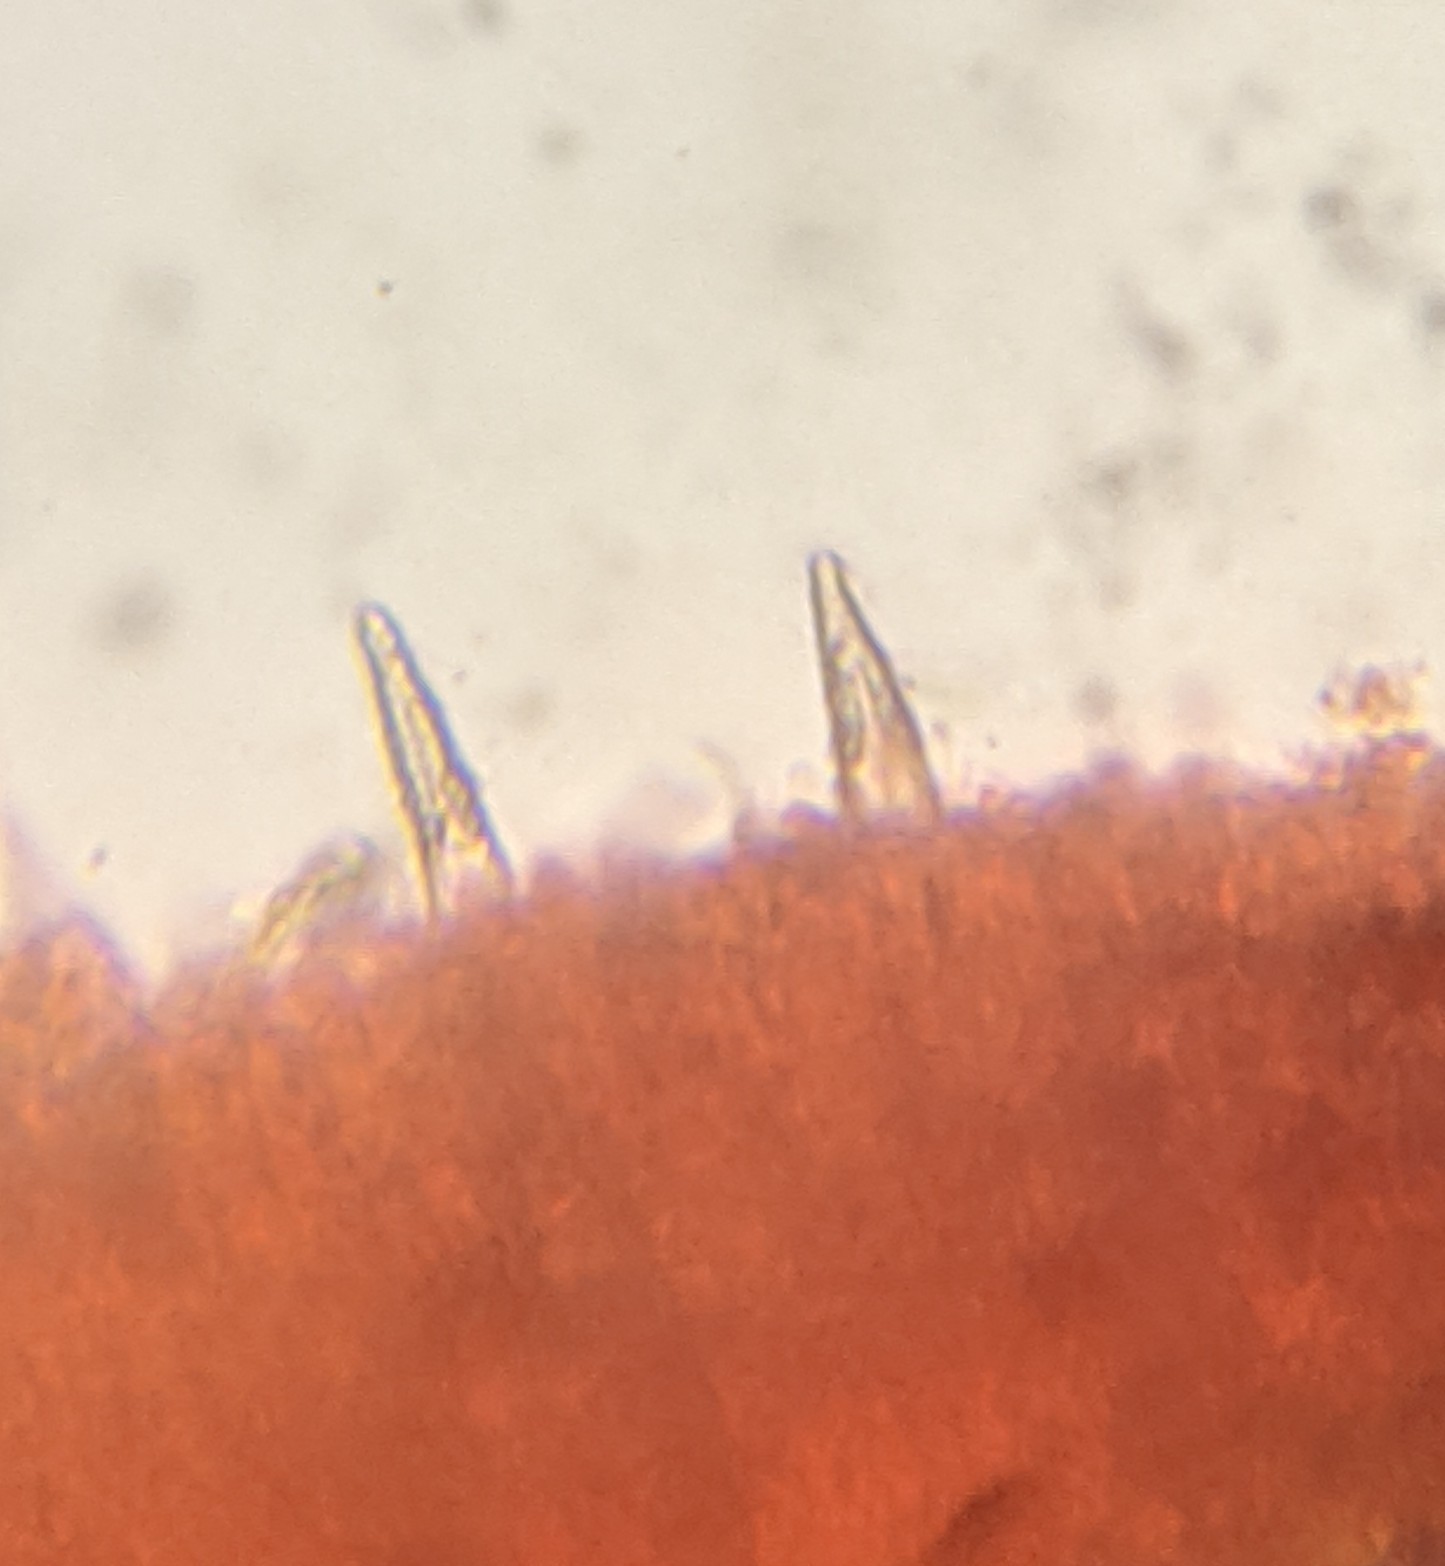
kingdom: Fungi
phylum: Basidiomycota
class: Agaricomycetes
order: Hymenochaetales
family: Rickenellaceae
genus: Peniophorella
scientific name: Peniophorella pubera
